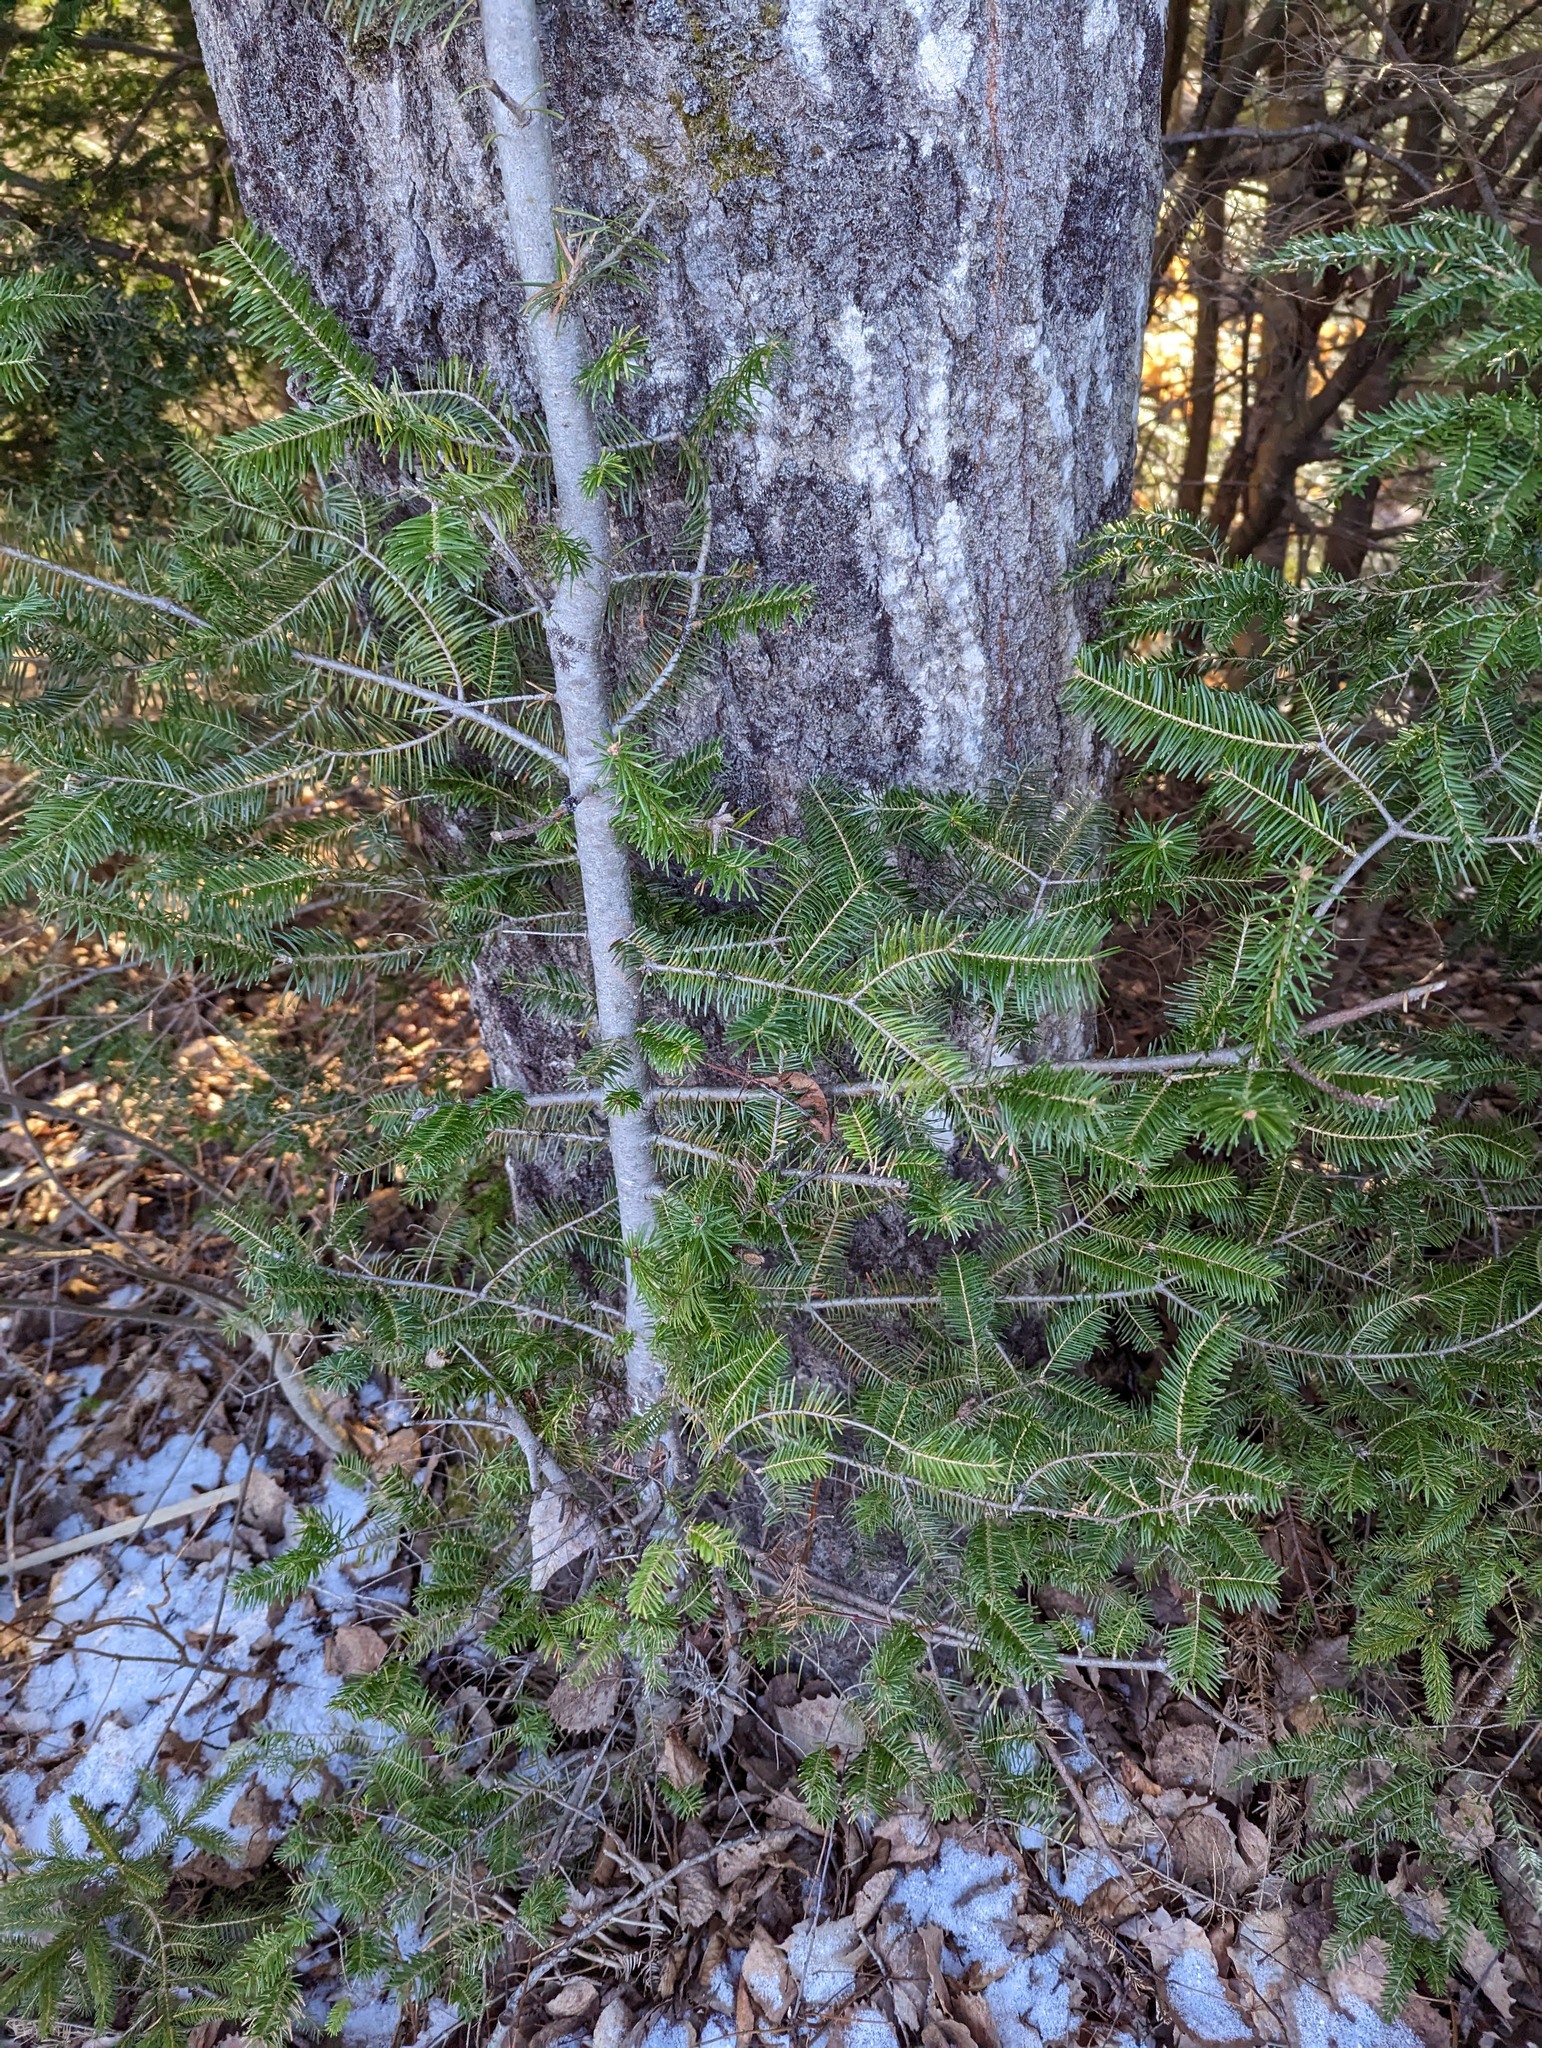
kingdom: Plantae
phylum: Tracheophyta
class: Pinopsida
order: Pinales
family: Pinaceae
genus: Abies
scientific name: Abies balsamea
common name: Balsam fir
